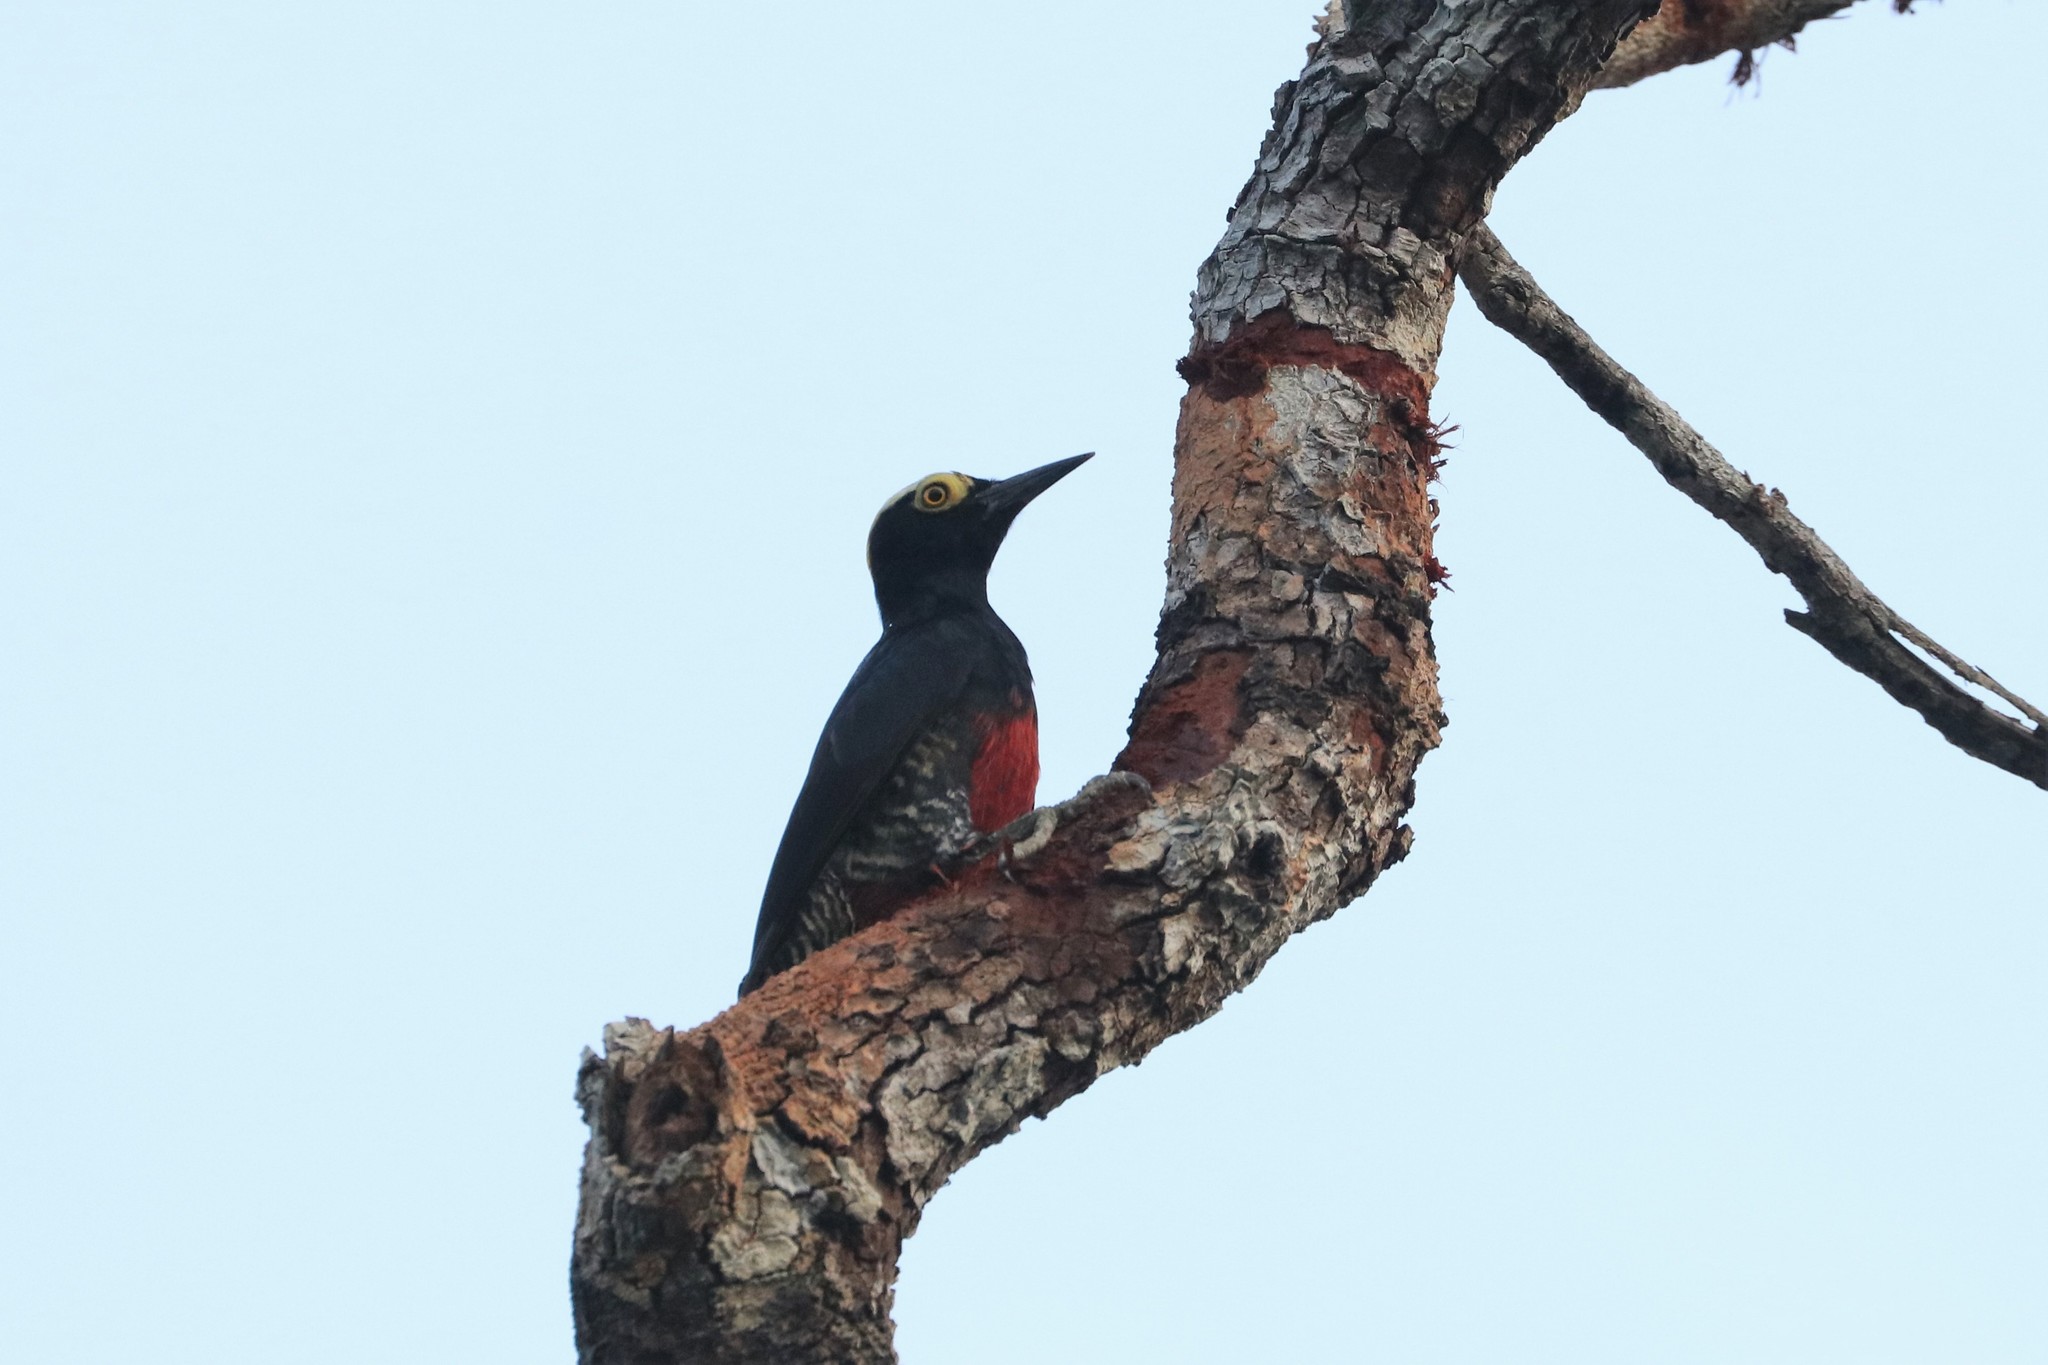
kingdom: Animalia
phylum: Chordata
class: Aves
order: Piciformes
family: Picidae
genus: Melanerpes
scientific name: Melanerpes cruentatus
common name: Yellow-tufted woodpecker
